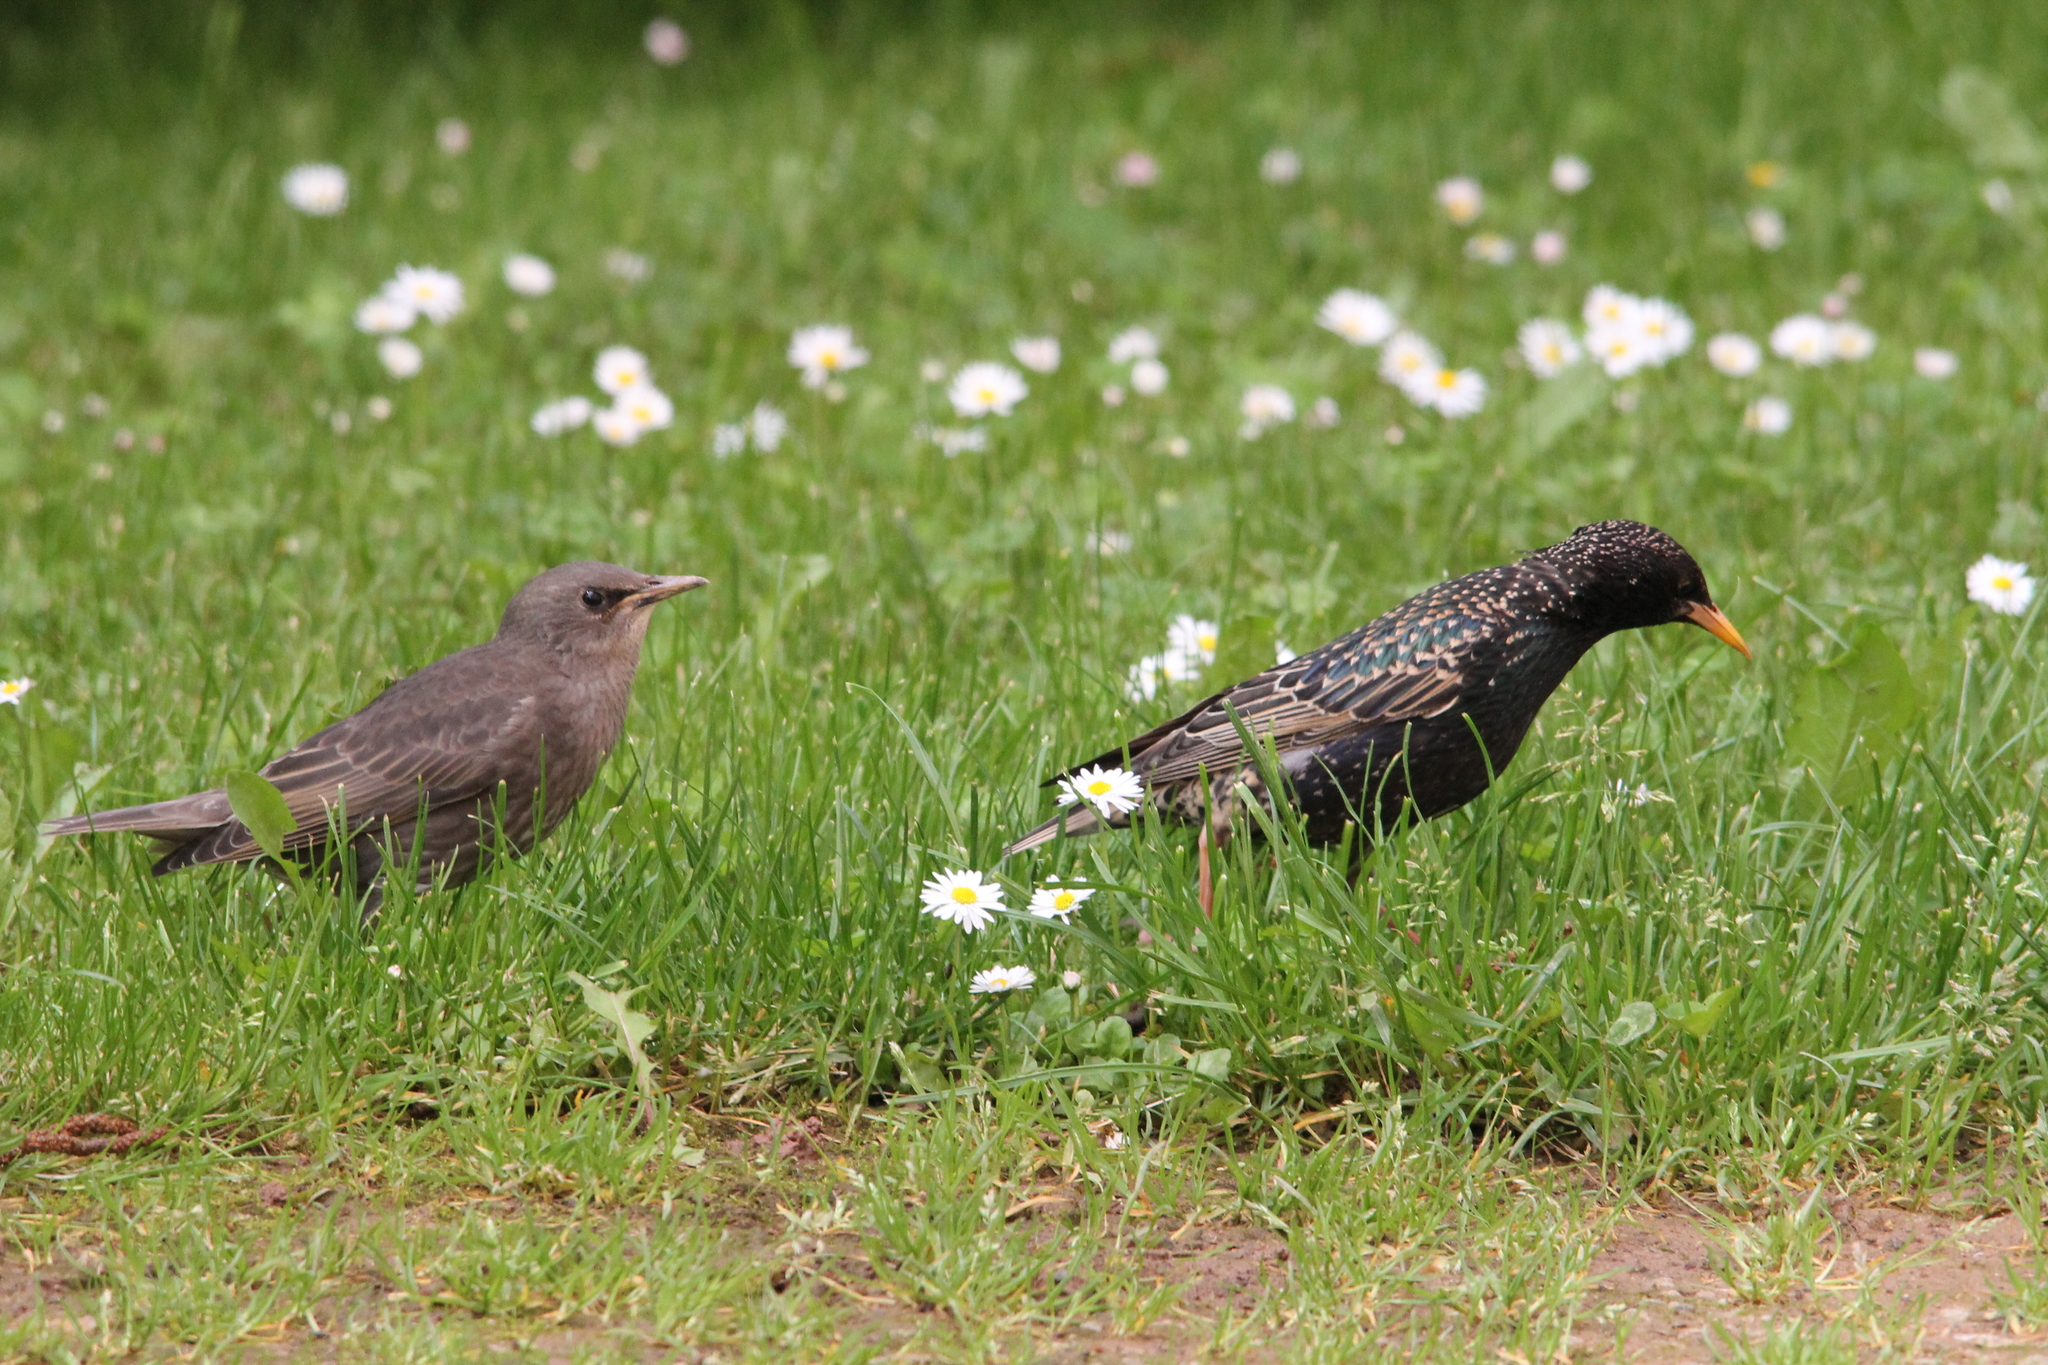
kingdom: Animalia
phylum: Chordata
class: Aves
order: Passeriformes
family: Sturnidae
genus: Sturnus
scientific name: Sturnus vulgaris
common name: Common starling
